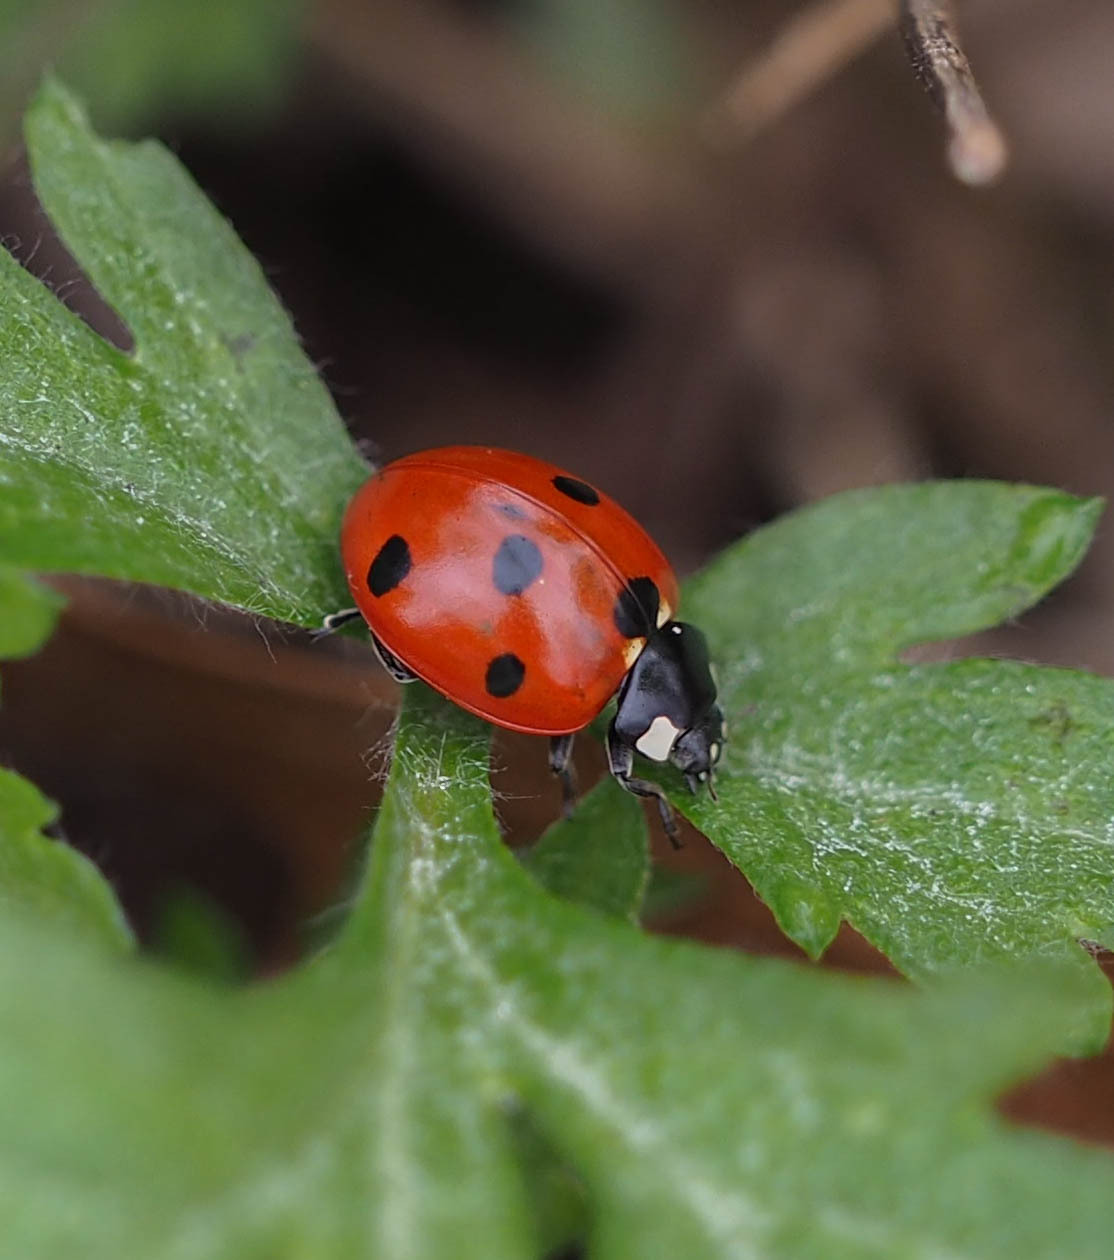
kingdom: Animalia
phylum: Arthropoda
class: Insecta
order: Coleoptera
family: Coccinellidae
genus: Coccinella
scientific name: Coccinella septempunctata
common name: Sevenspotted lady beetle
